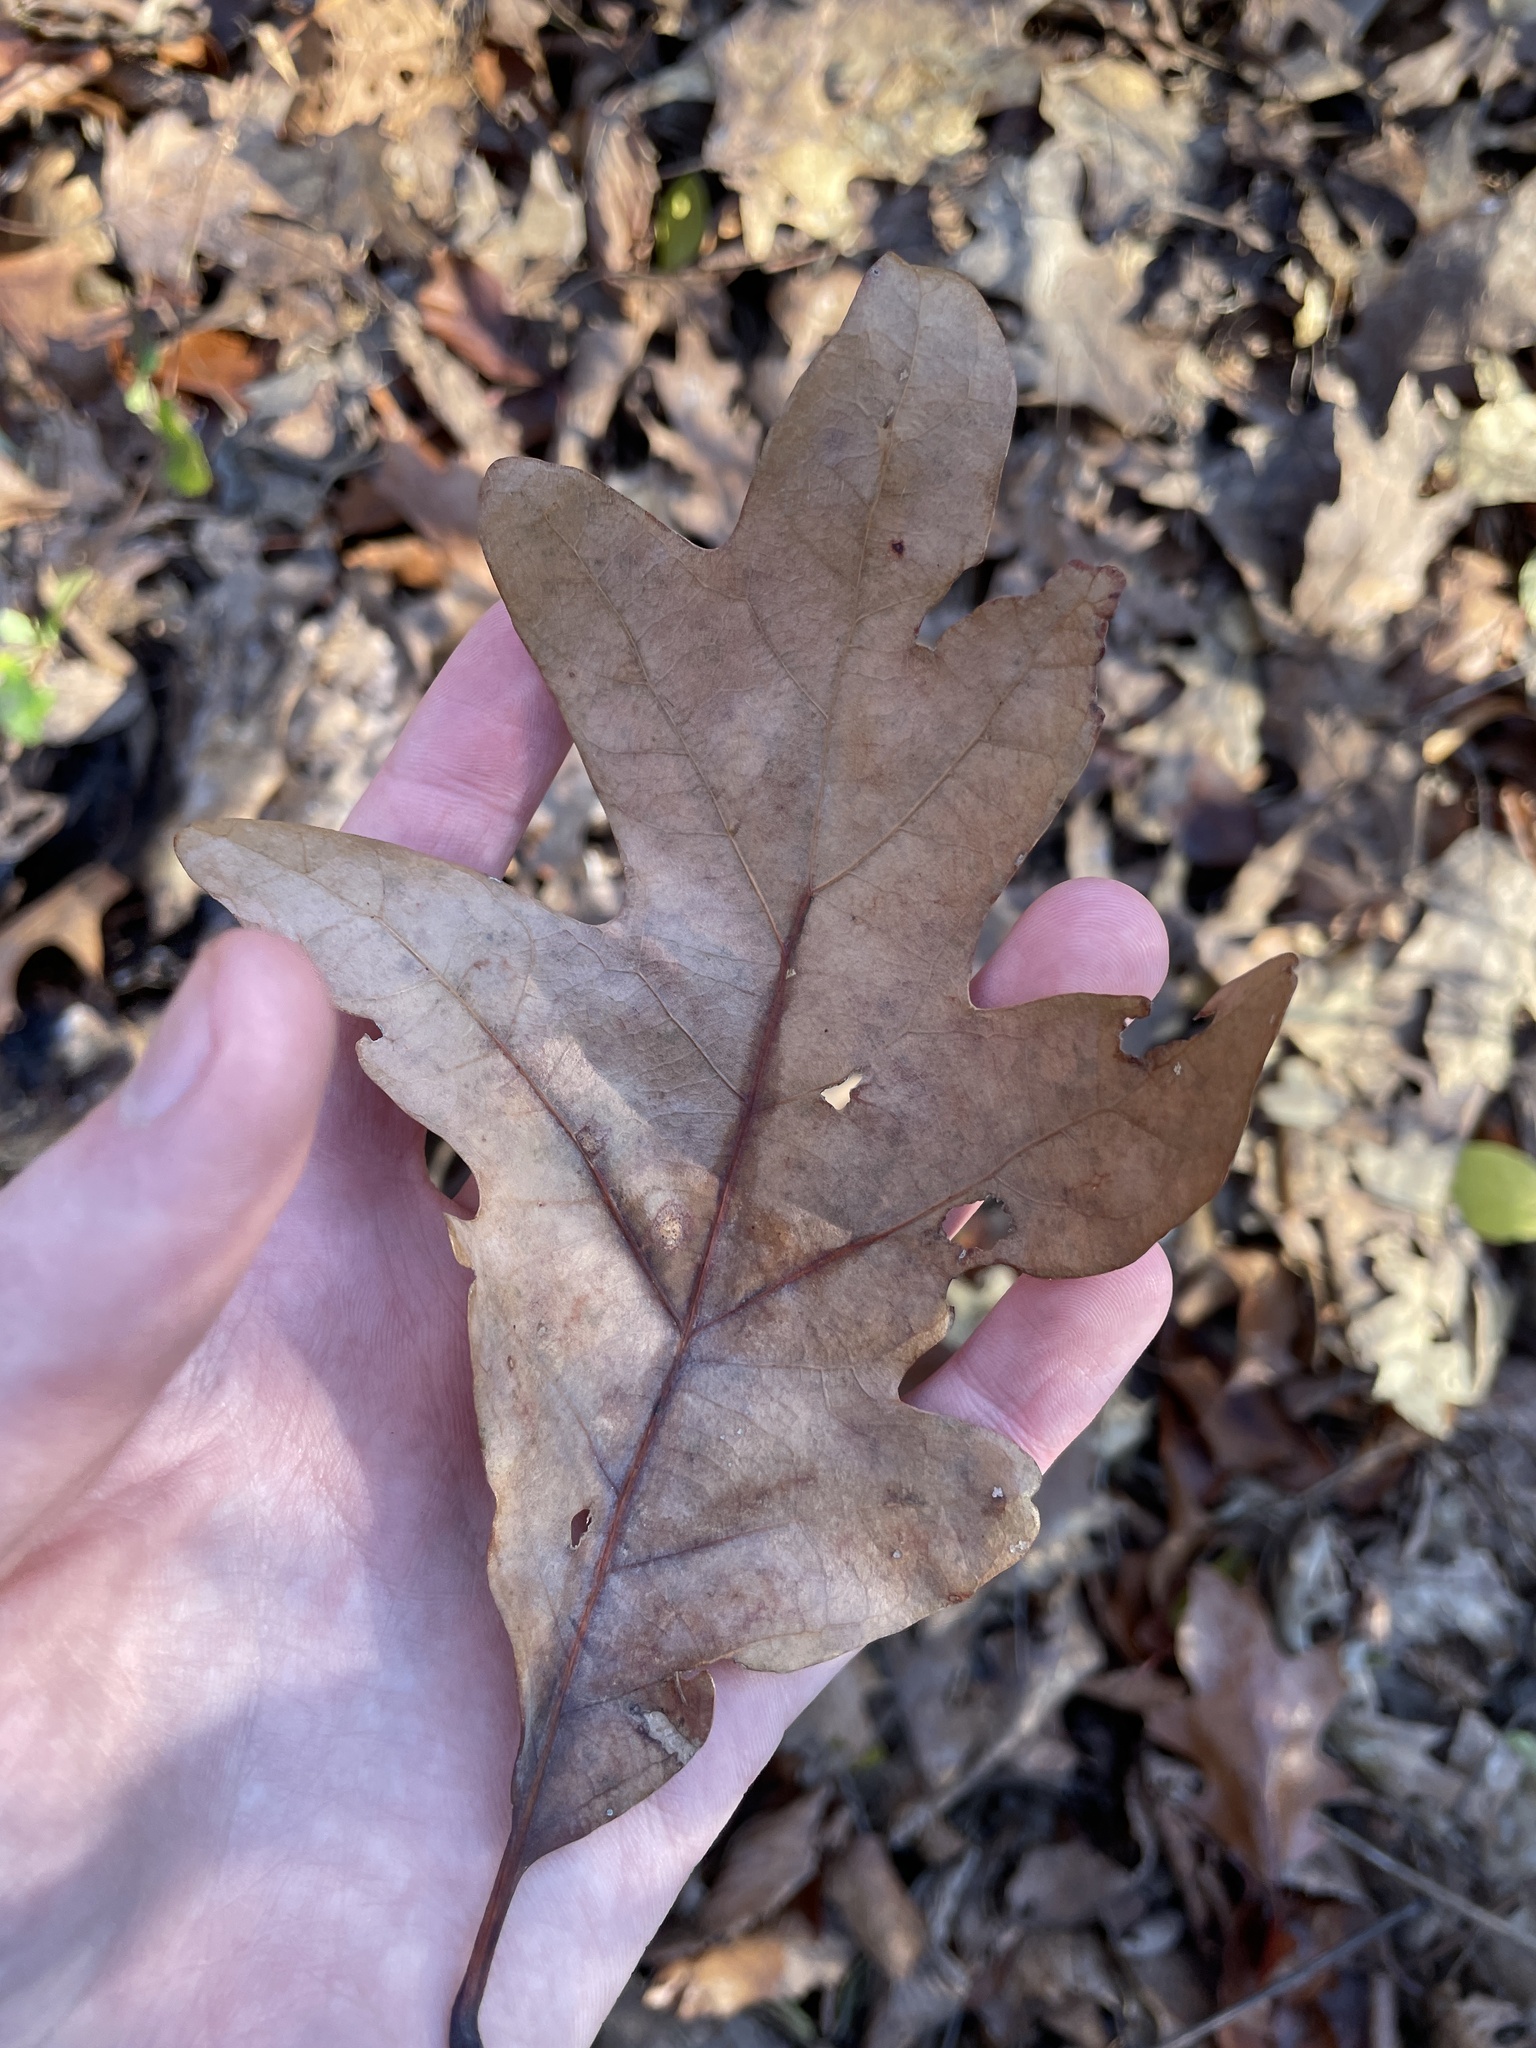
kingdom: Plantae
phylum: Tracheophyta
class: Magnoliopsida
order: Fagales
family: Fagaceae
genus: Quercus
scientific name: Quercus alba
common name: White oak
